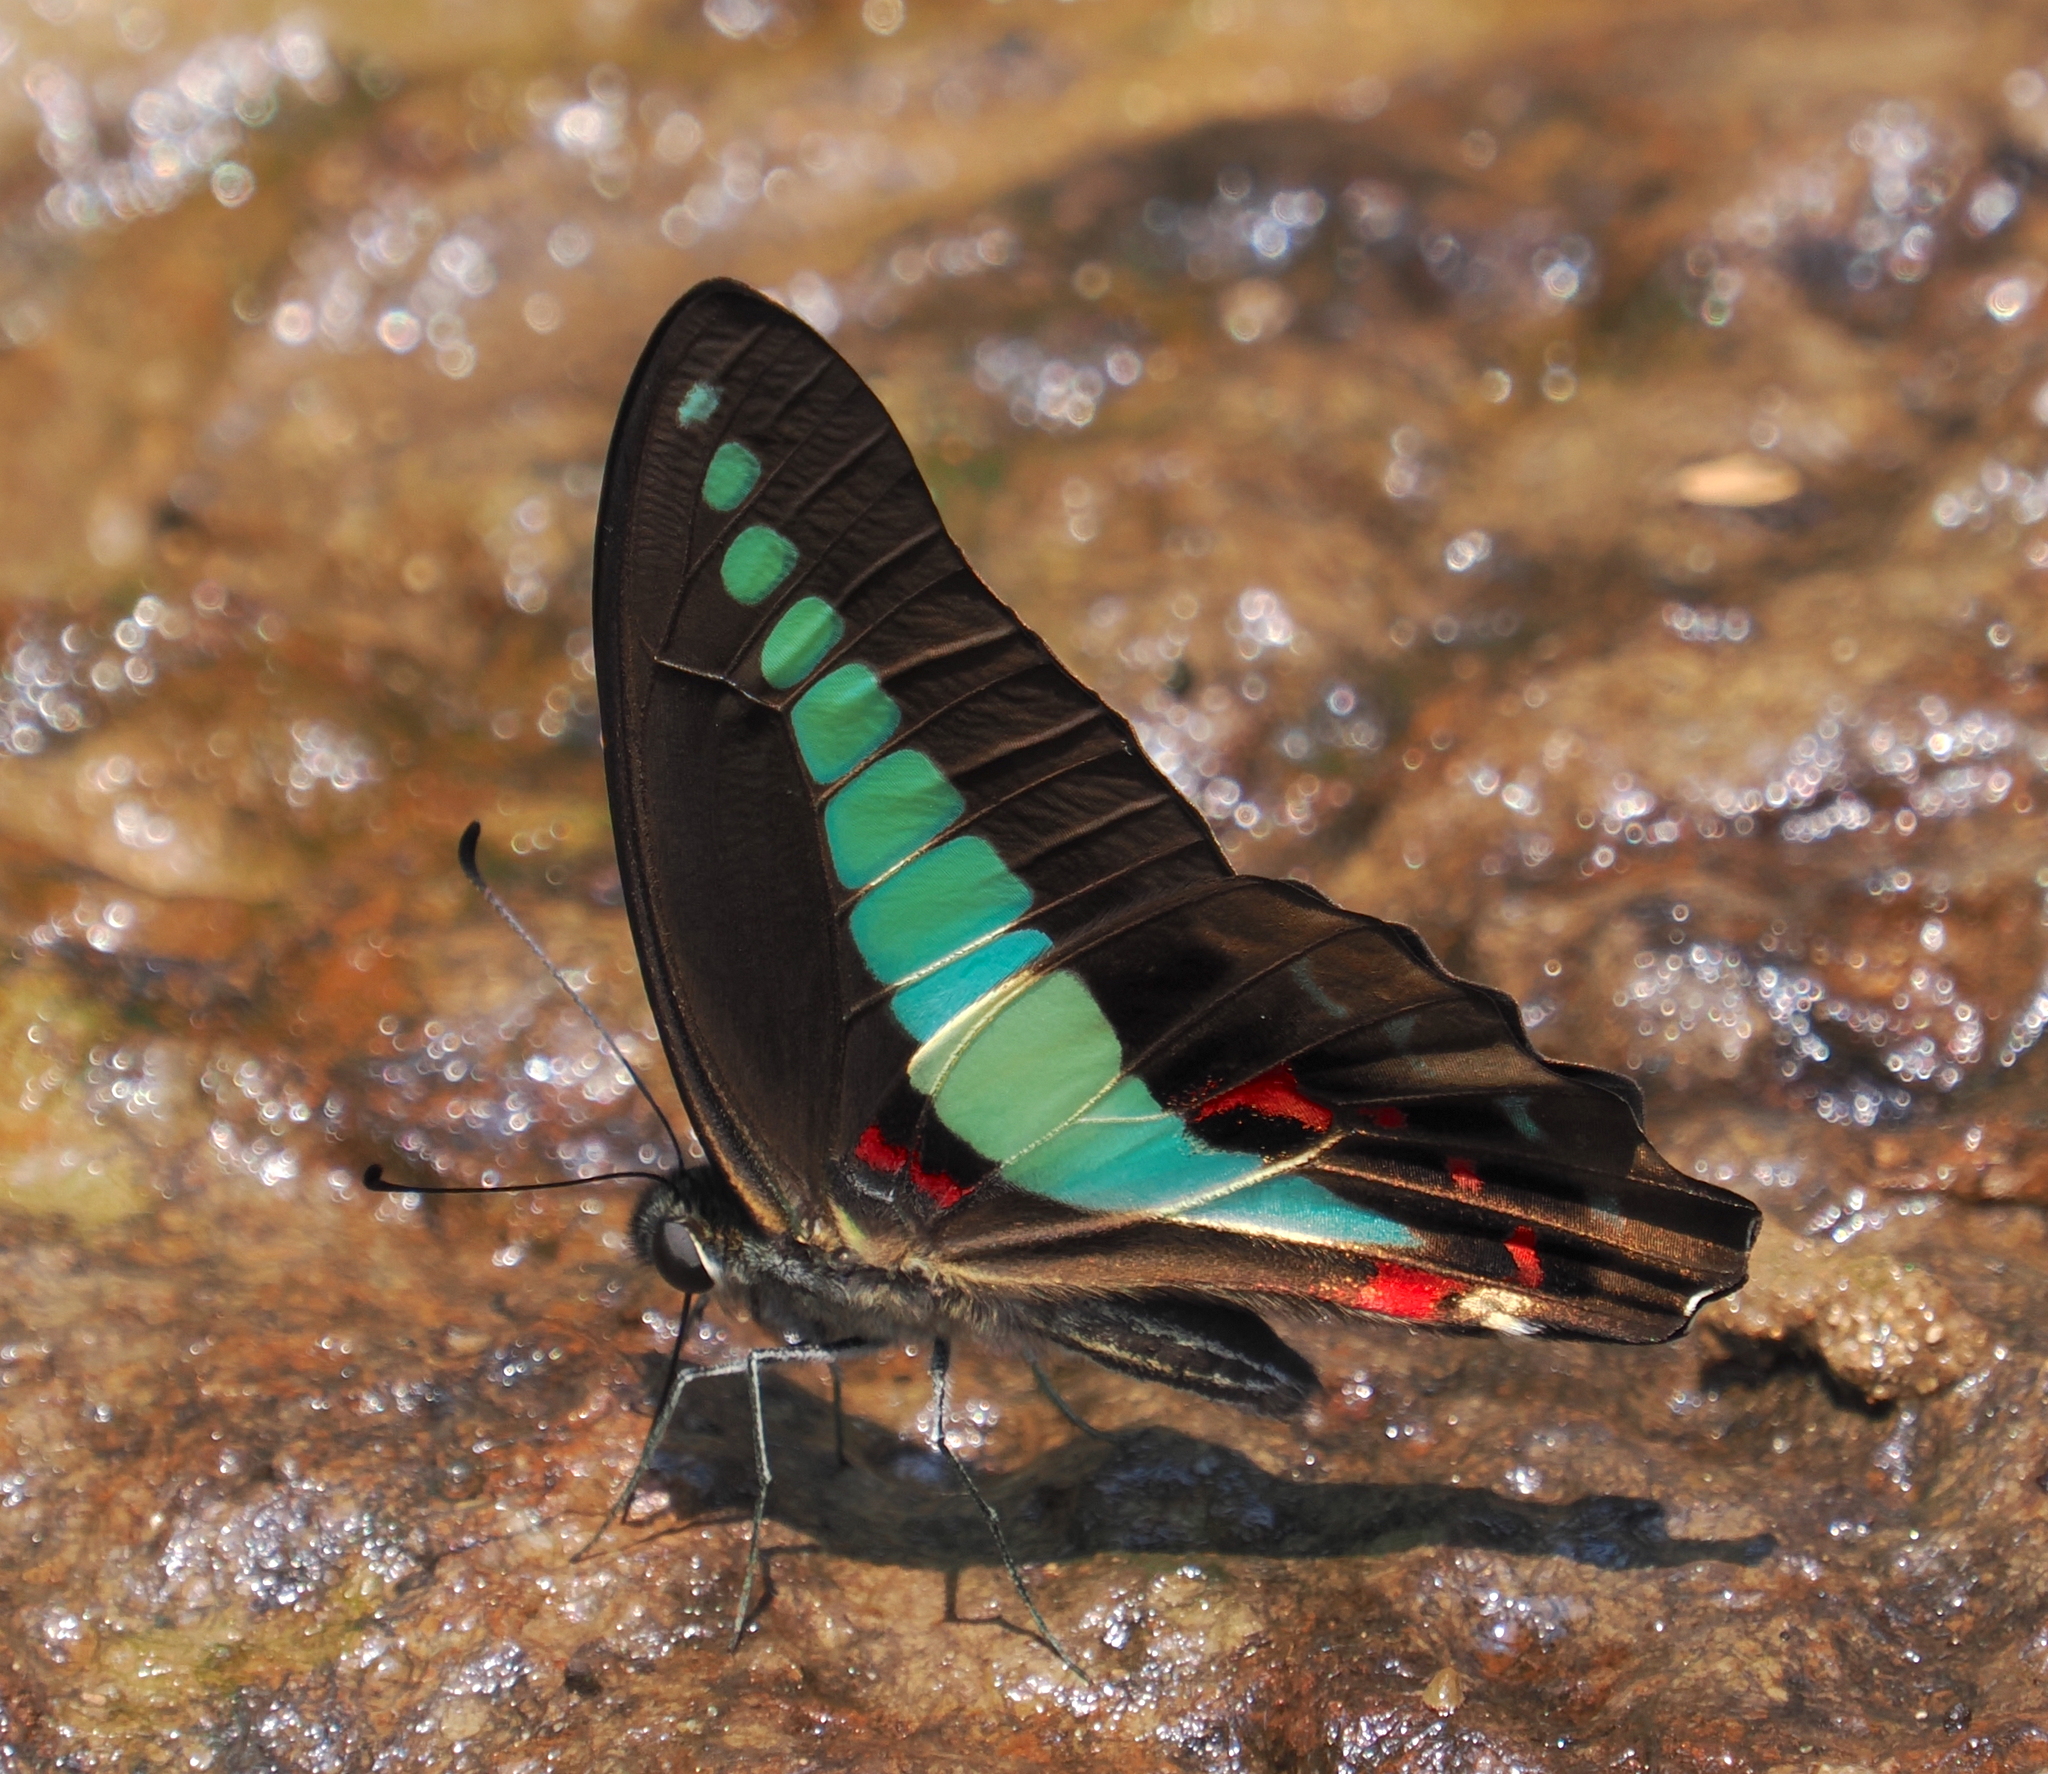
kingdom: Fungi
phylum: Ascomycota
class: Sordariomycetes
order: Microascales
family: Microascaceae
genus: Graphium
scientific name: Graphium sarpedon
